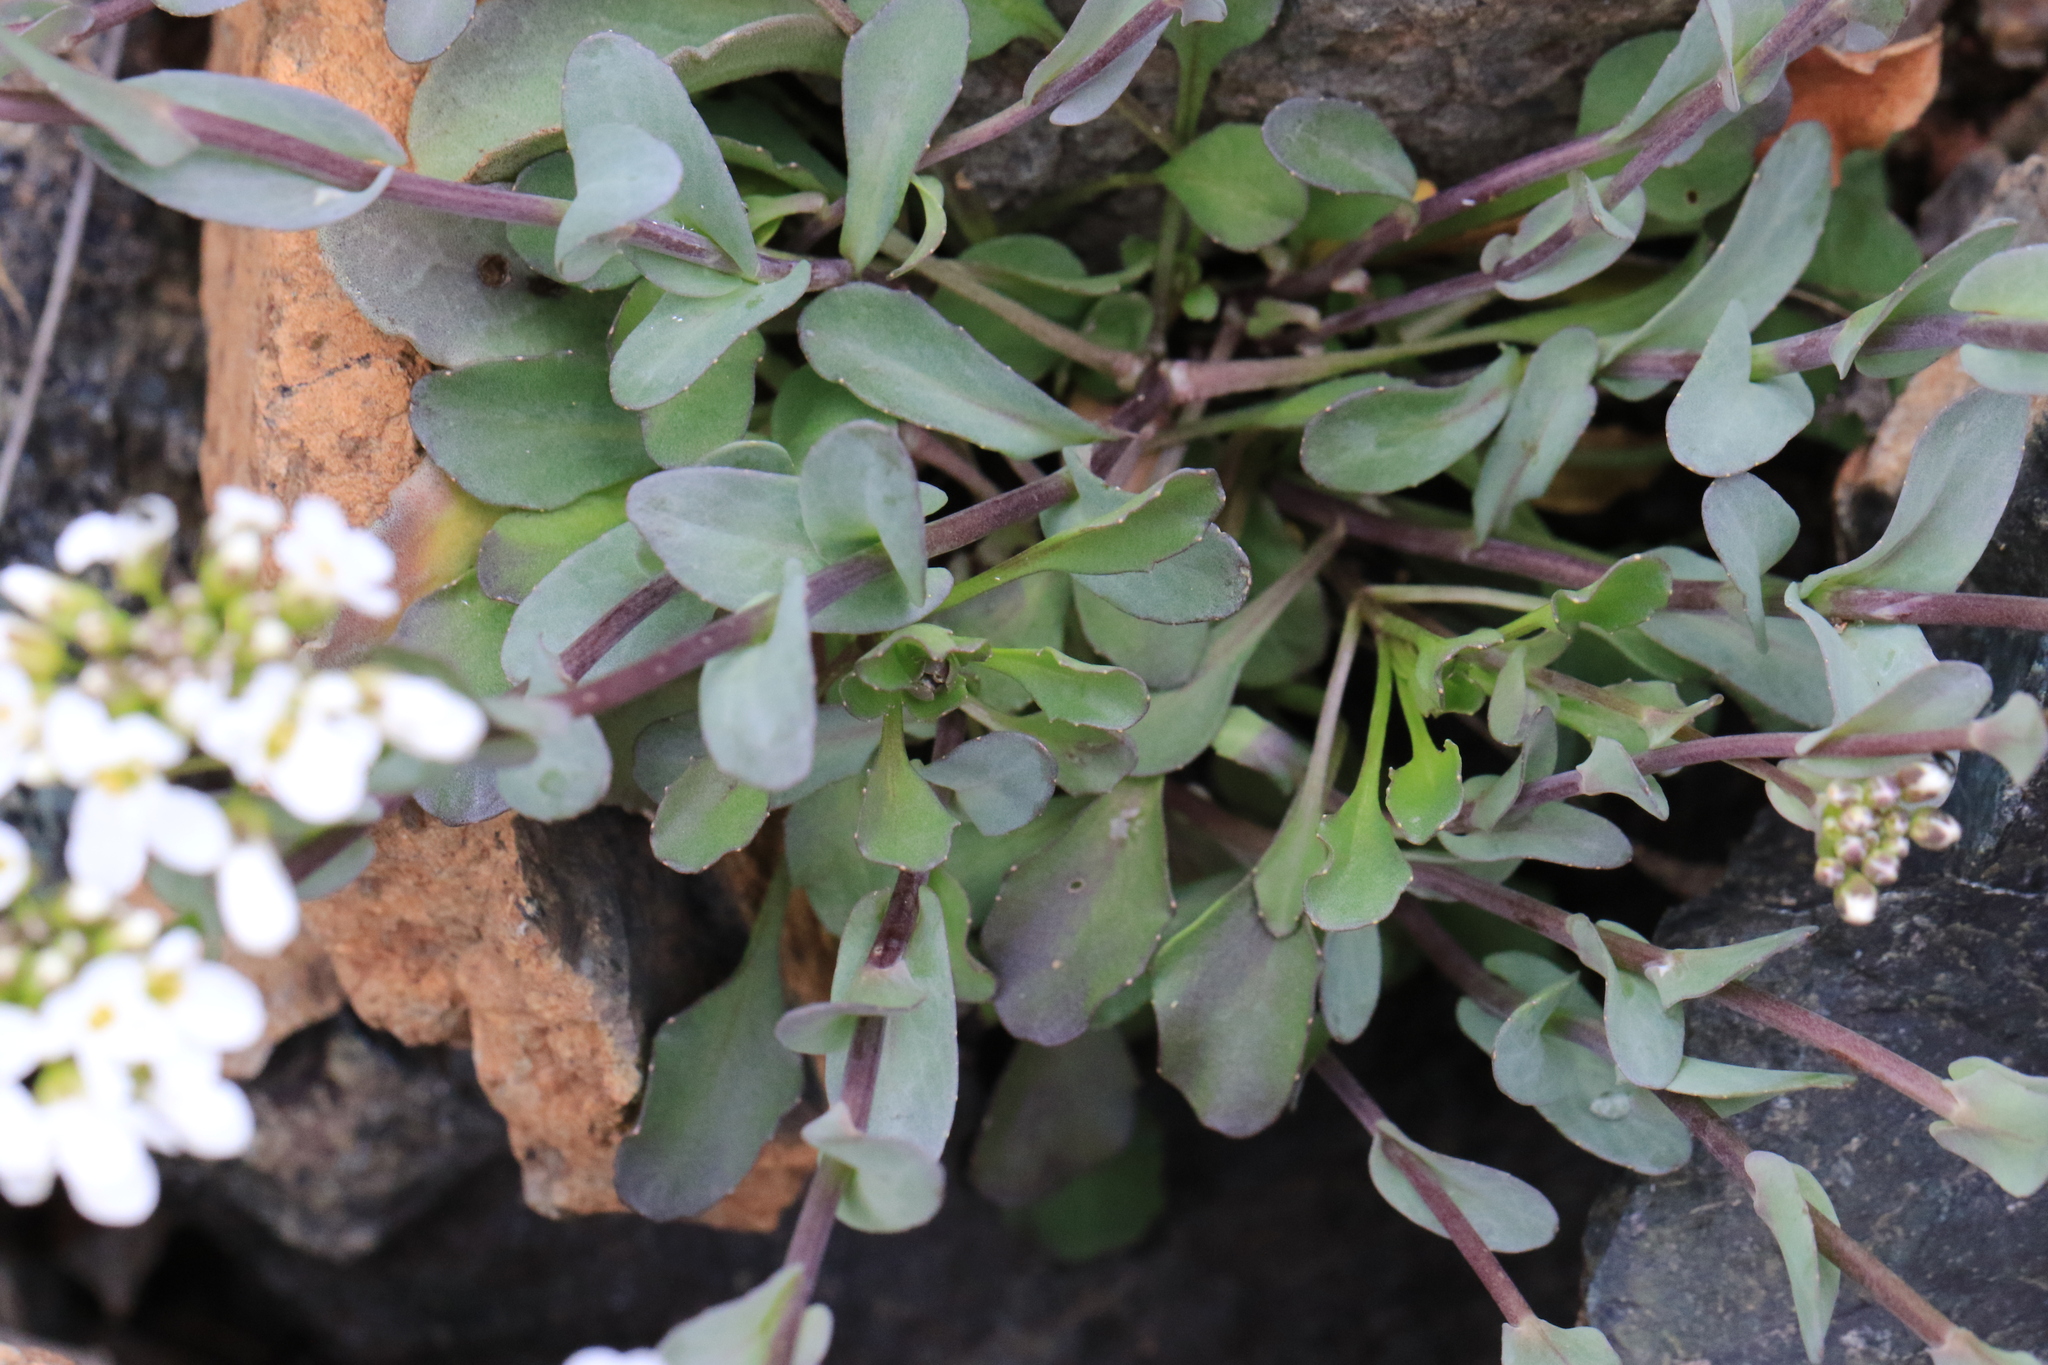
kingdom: Plantae
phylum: Tracheophyta
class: Magnoliopsida
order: Brassicales
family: Brassicaceae
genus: Noccaea
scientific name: Noccaea fendleri
